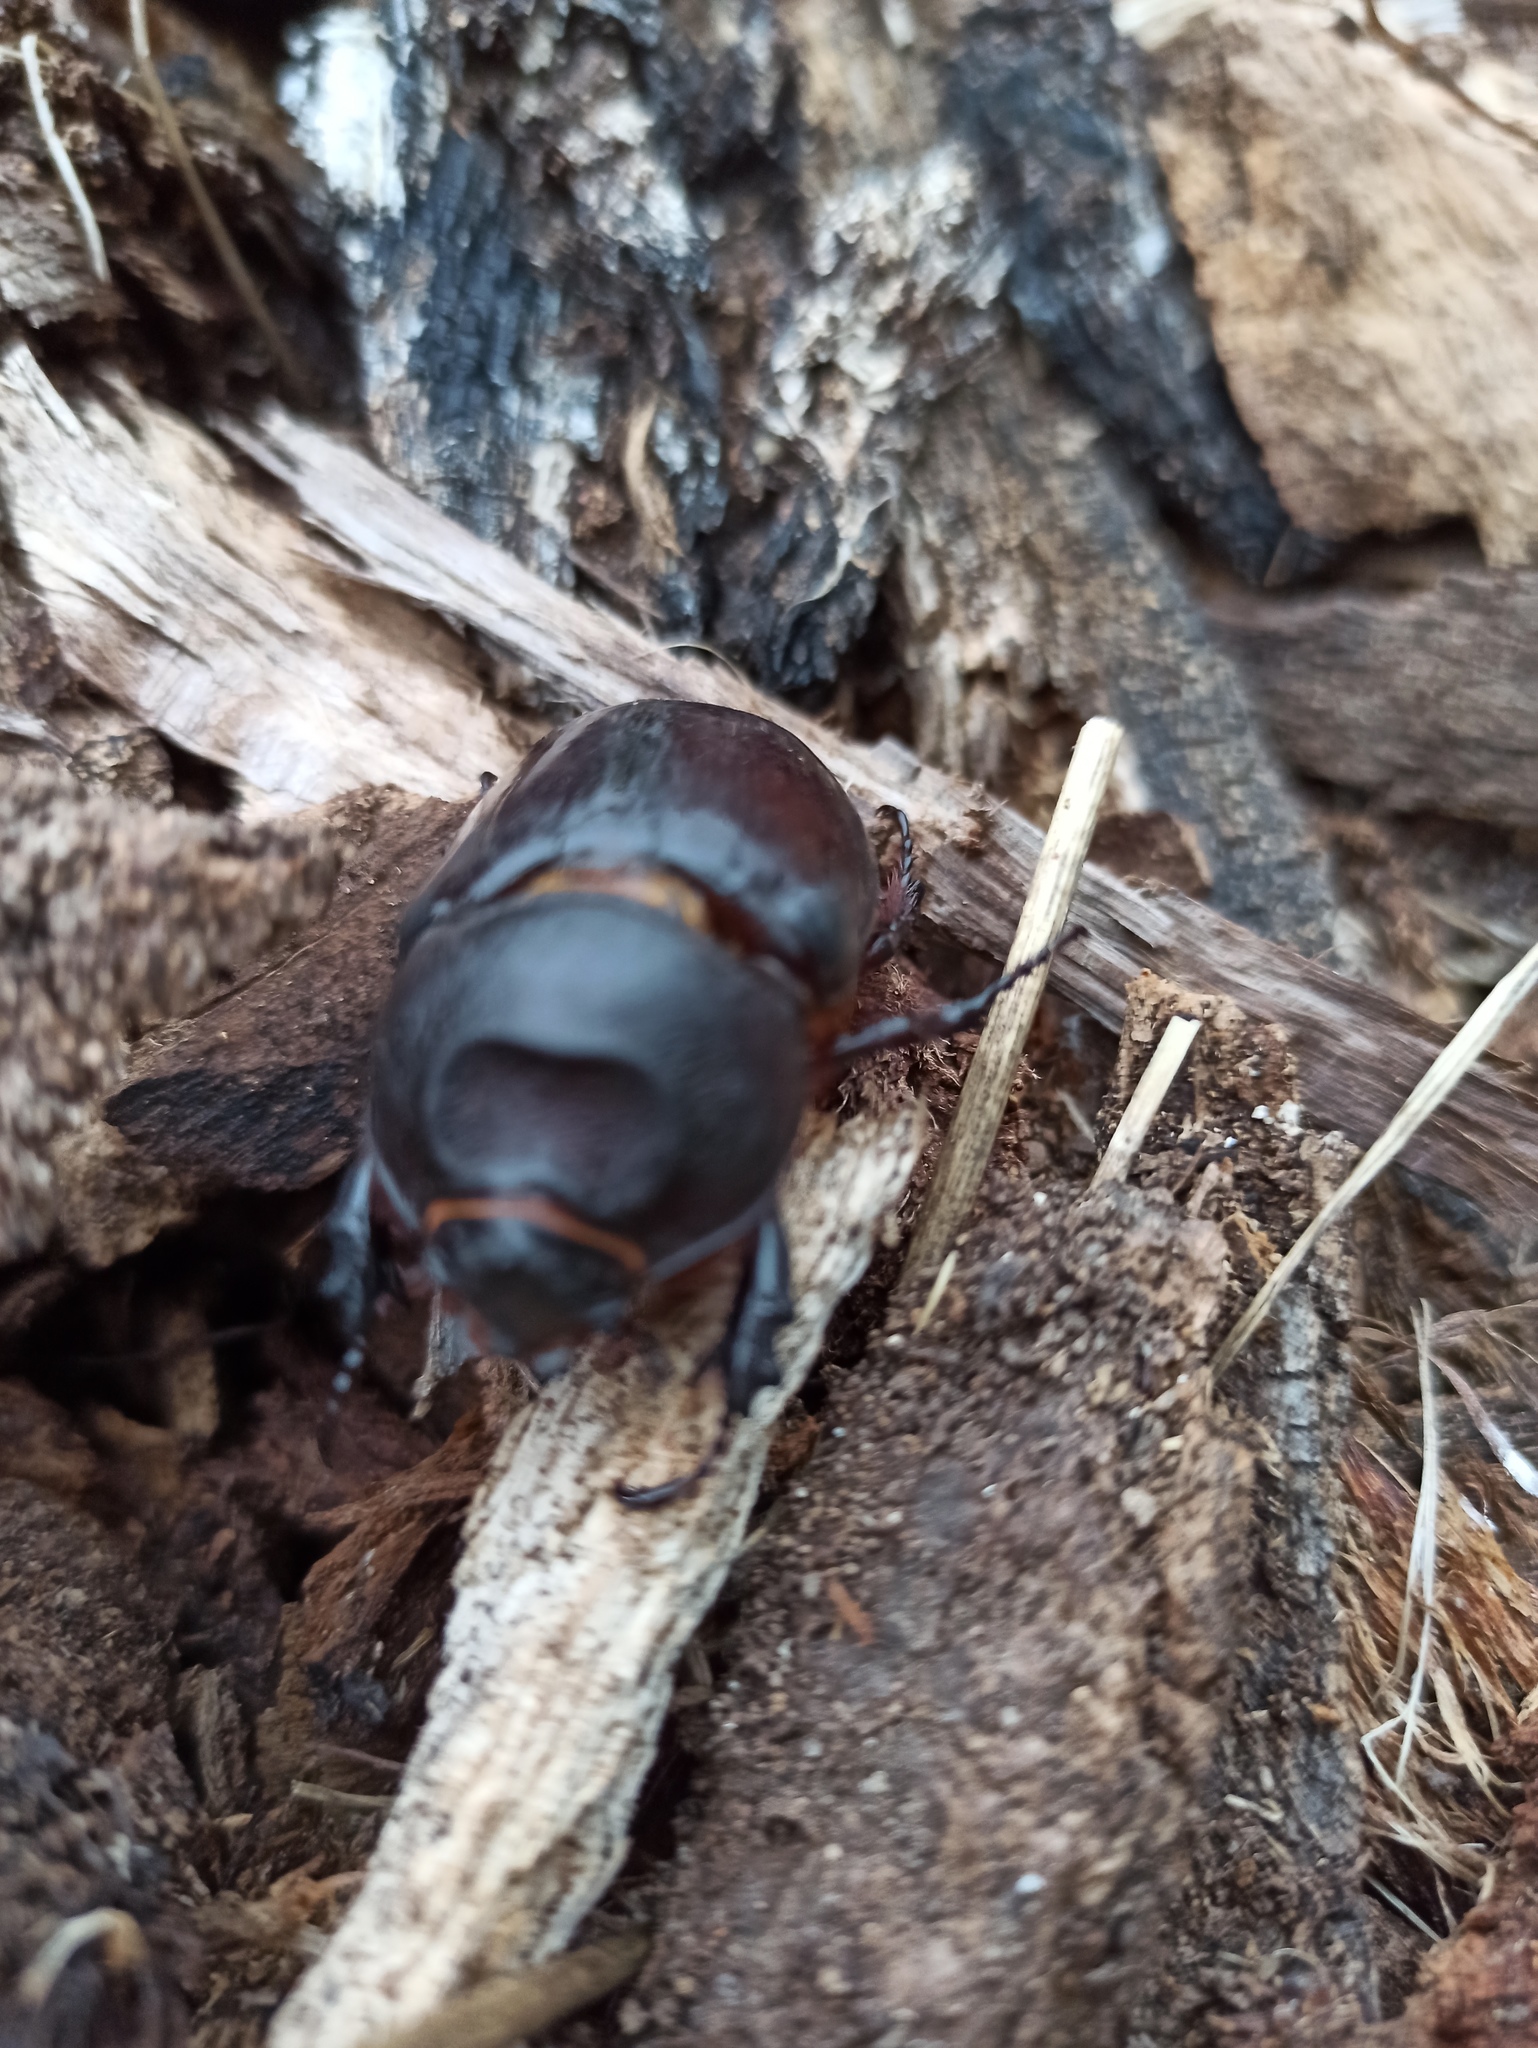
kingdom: Animalia
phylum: Arthropoda
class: Insecta
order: Coleoptera
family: Scarabaeidae
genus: Oryctes
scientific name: Oryctes nasicornis
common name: European rhinoceros beetle
